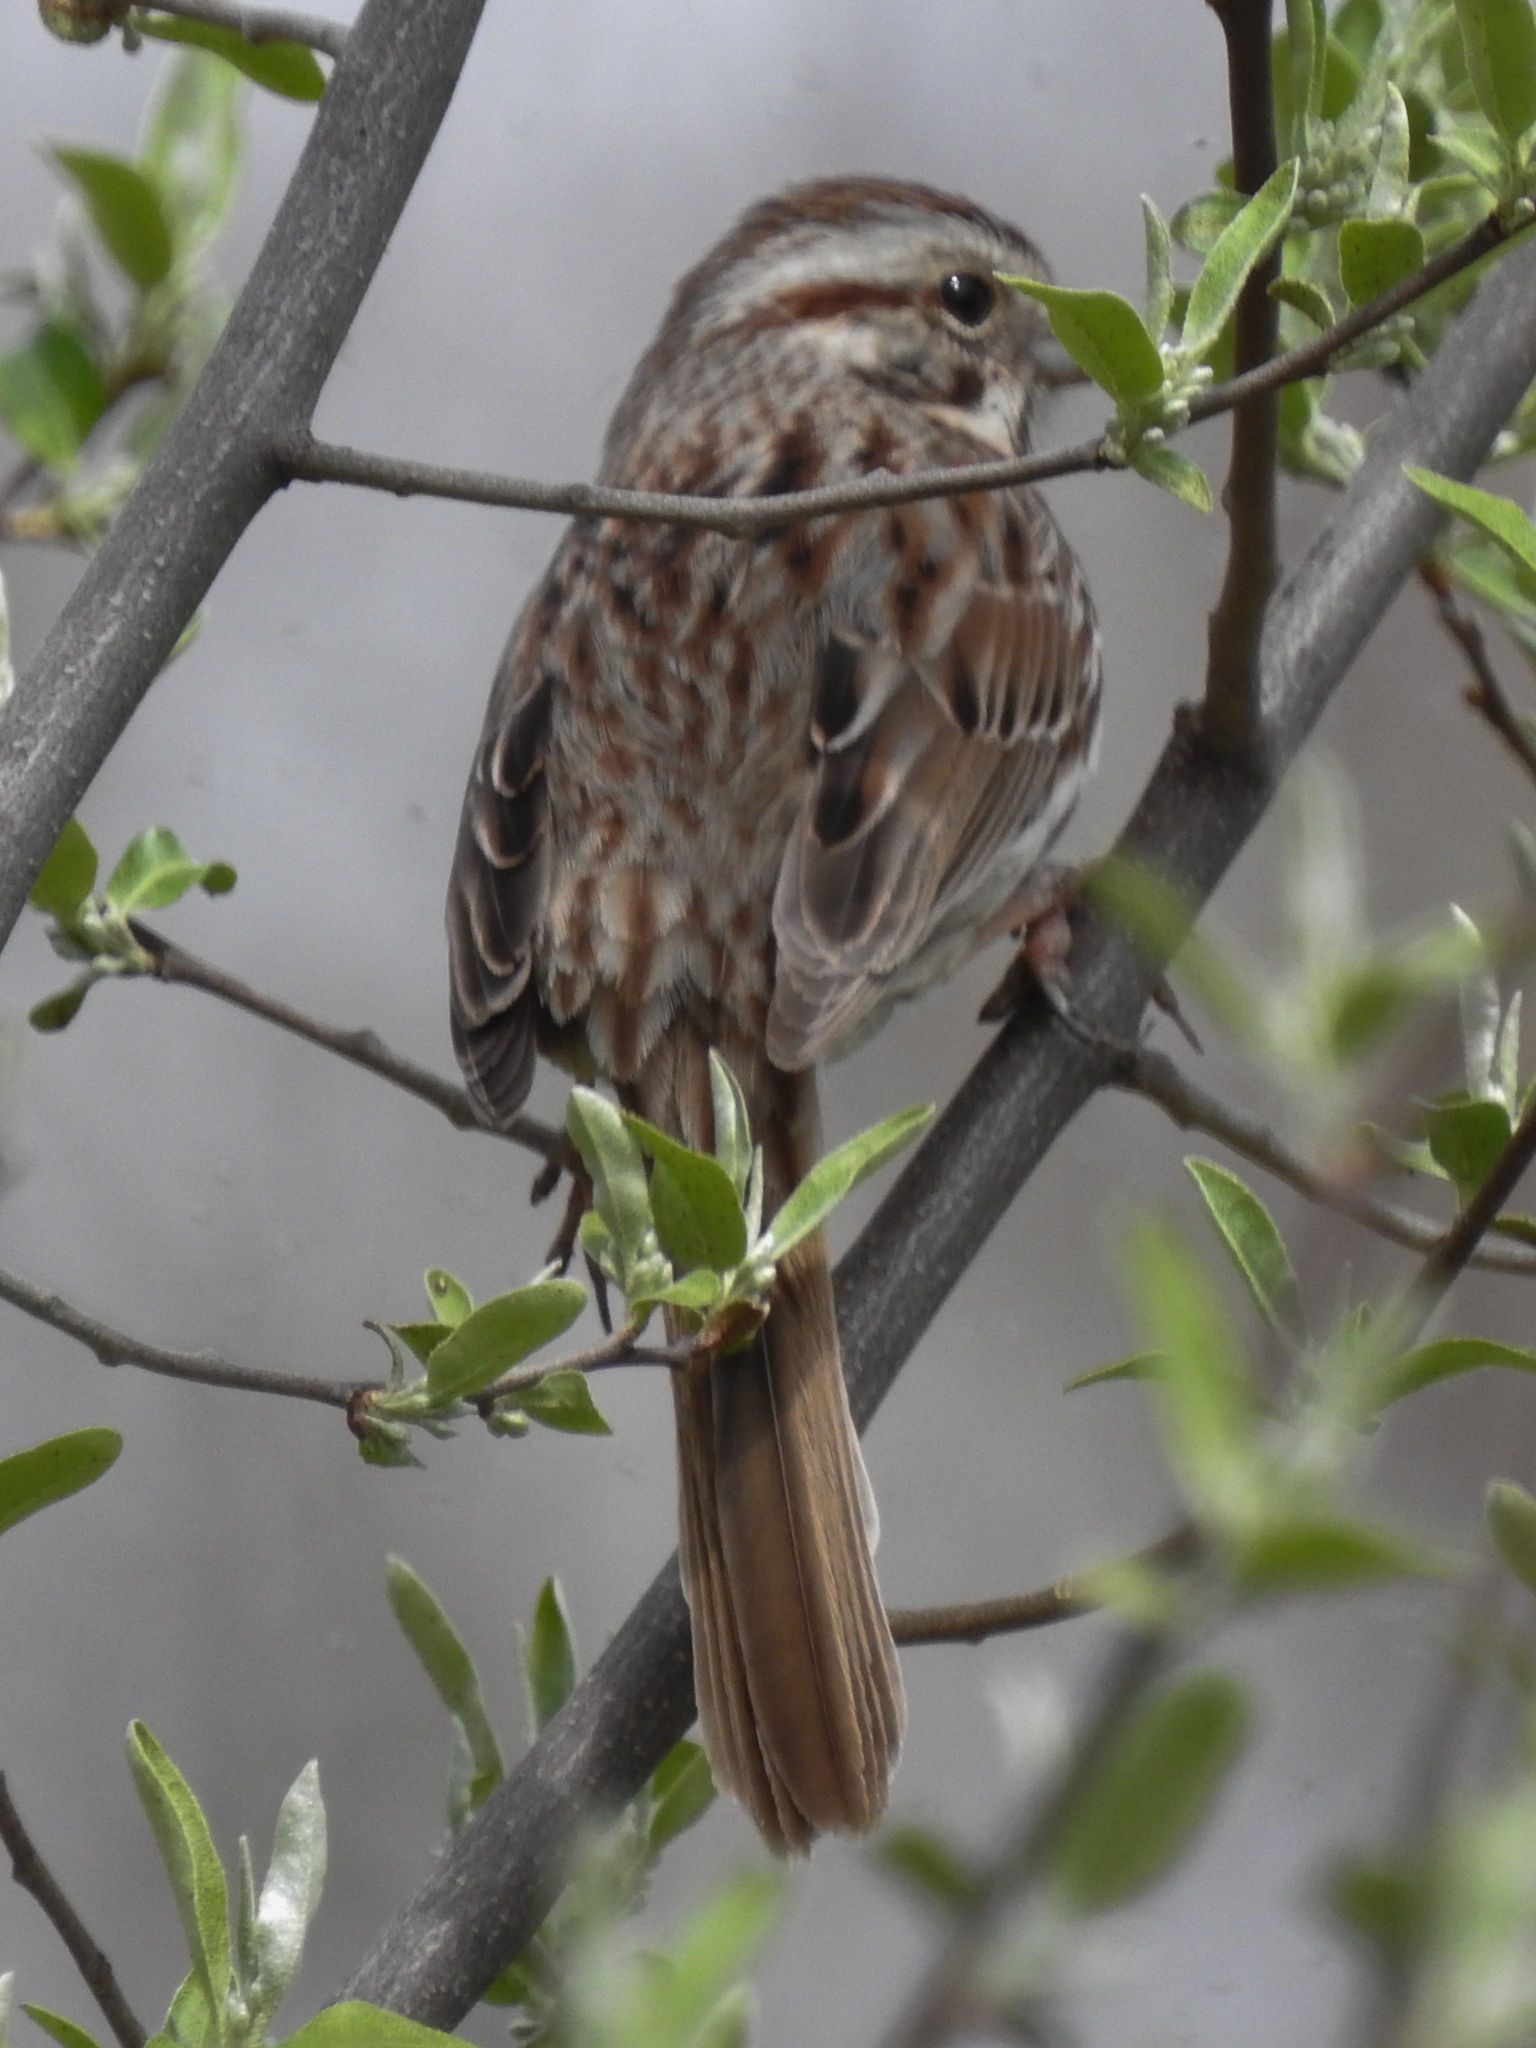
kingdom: Animalia
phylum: Chordata
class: Aves
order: Passeriformes
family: Passerellidae
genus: Melospiza
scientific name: Melospiza melodia
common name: Song sparrow
